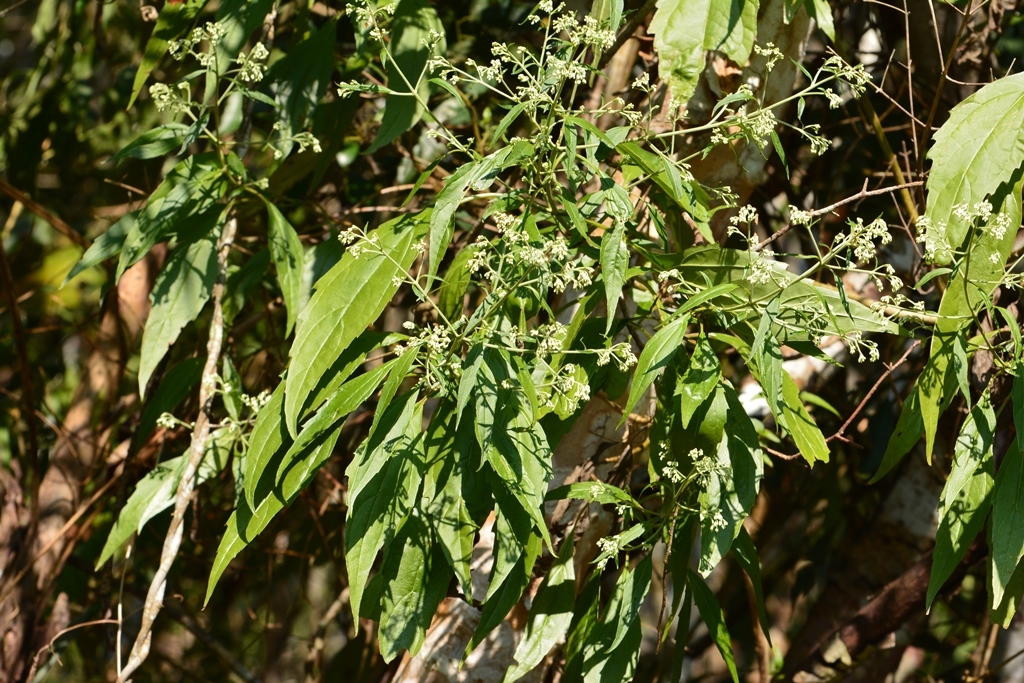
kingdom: Plantae
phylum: Tracheophyta
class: Magnoliopsida
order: Asterales
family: Asteraceae
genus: Fleischmanniopsis
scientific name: Fleischmanniopsis leucocephala
